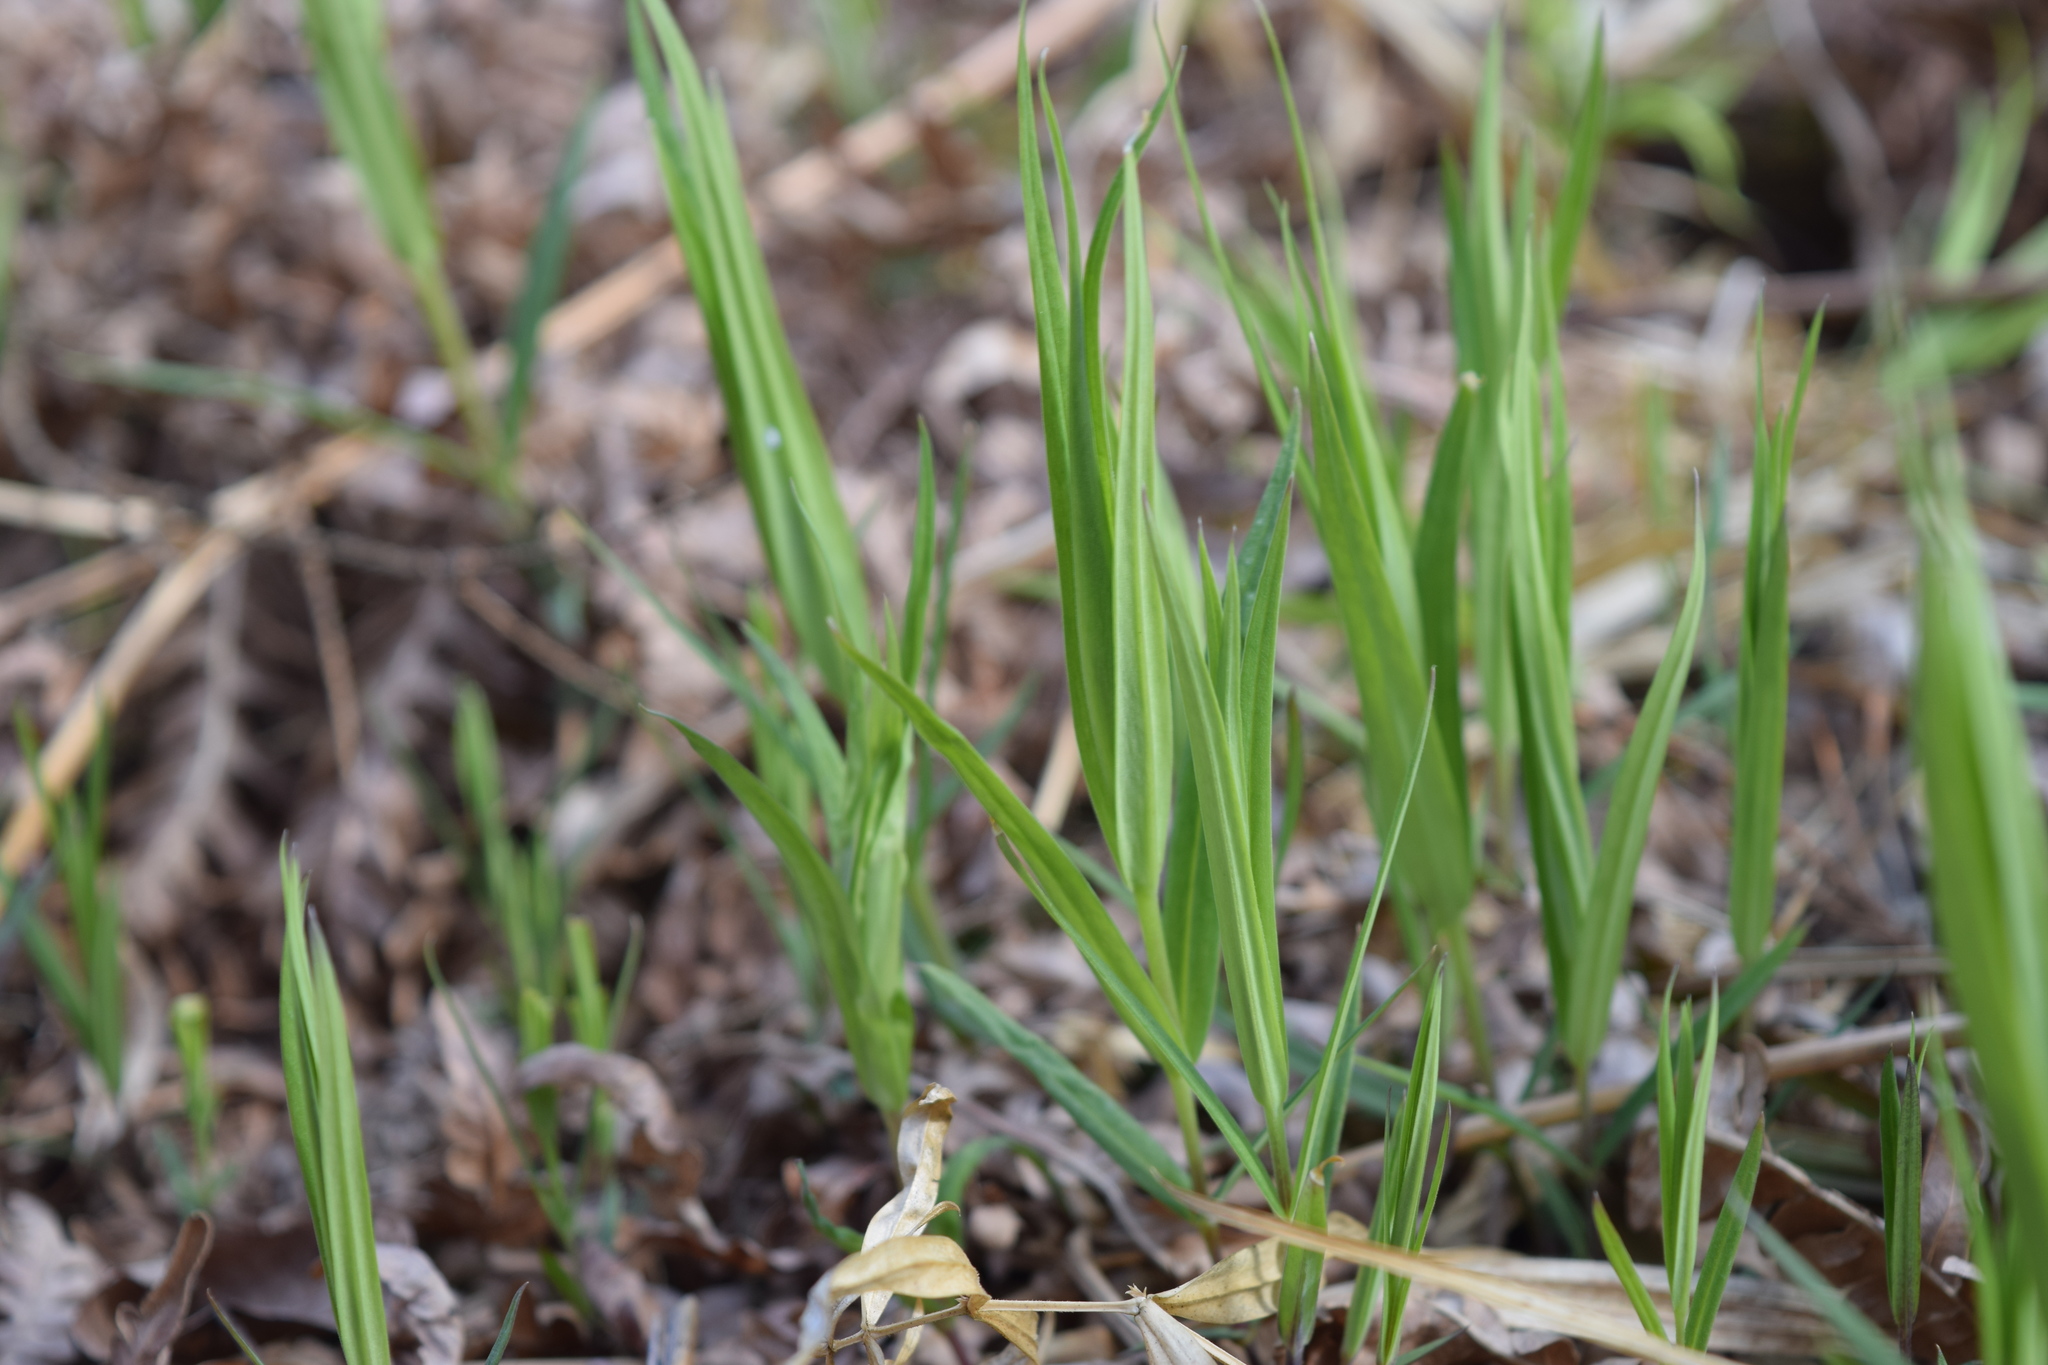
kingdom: Plantae
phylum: Tracheophyta
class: Magnoliopsida
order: Caryophyllales
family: Caryophyllaceae
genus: Rabelera
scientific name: Rabelera holostea
